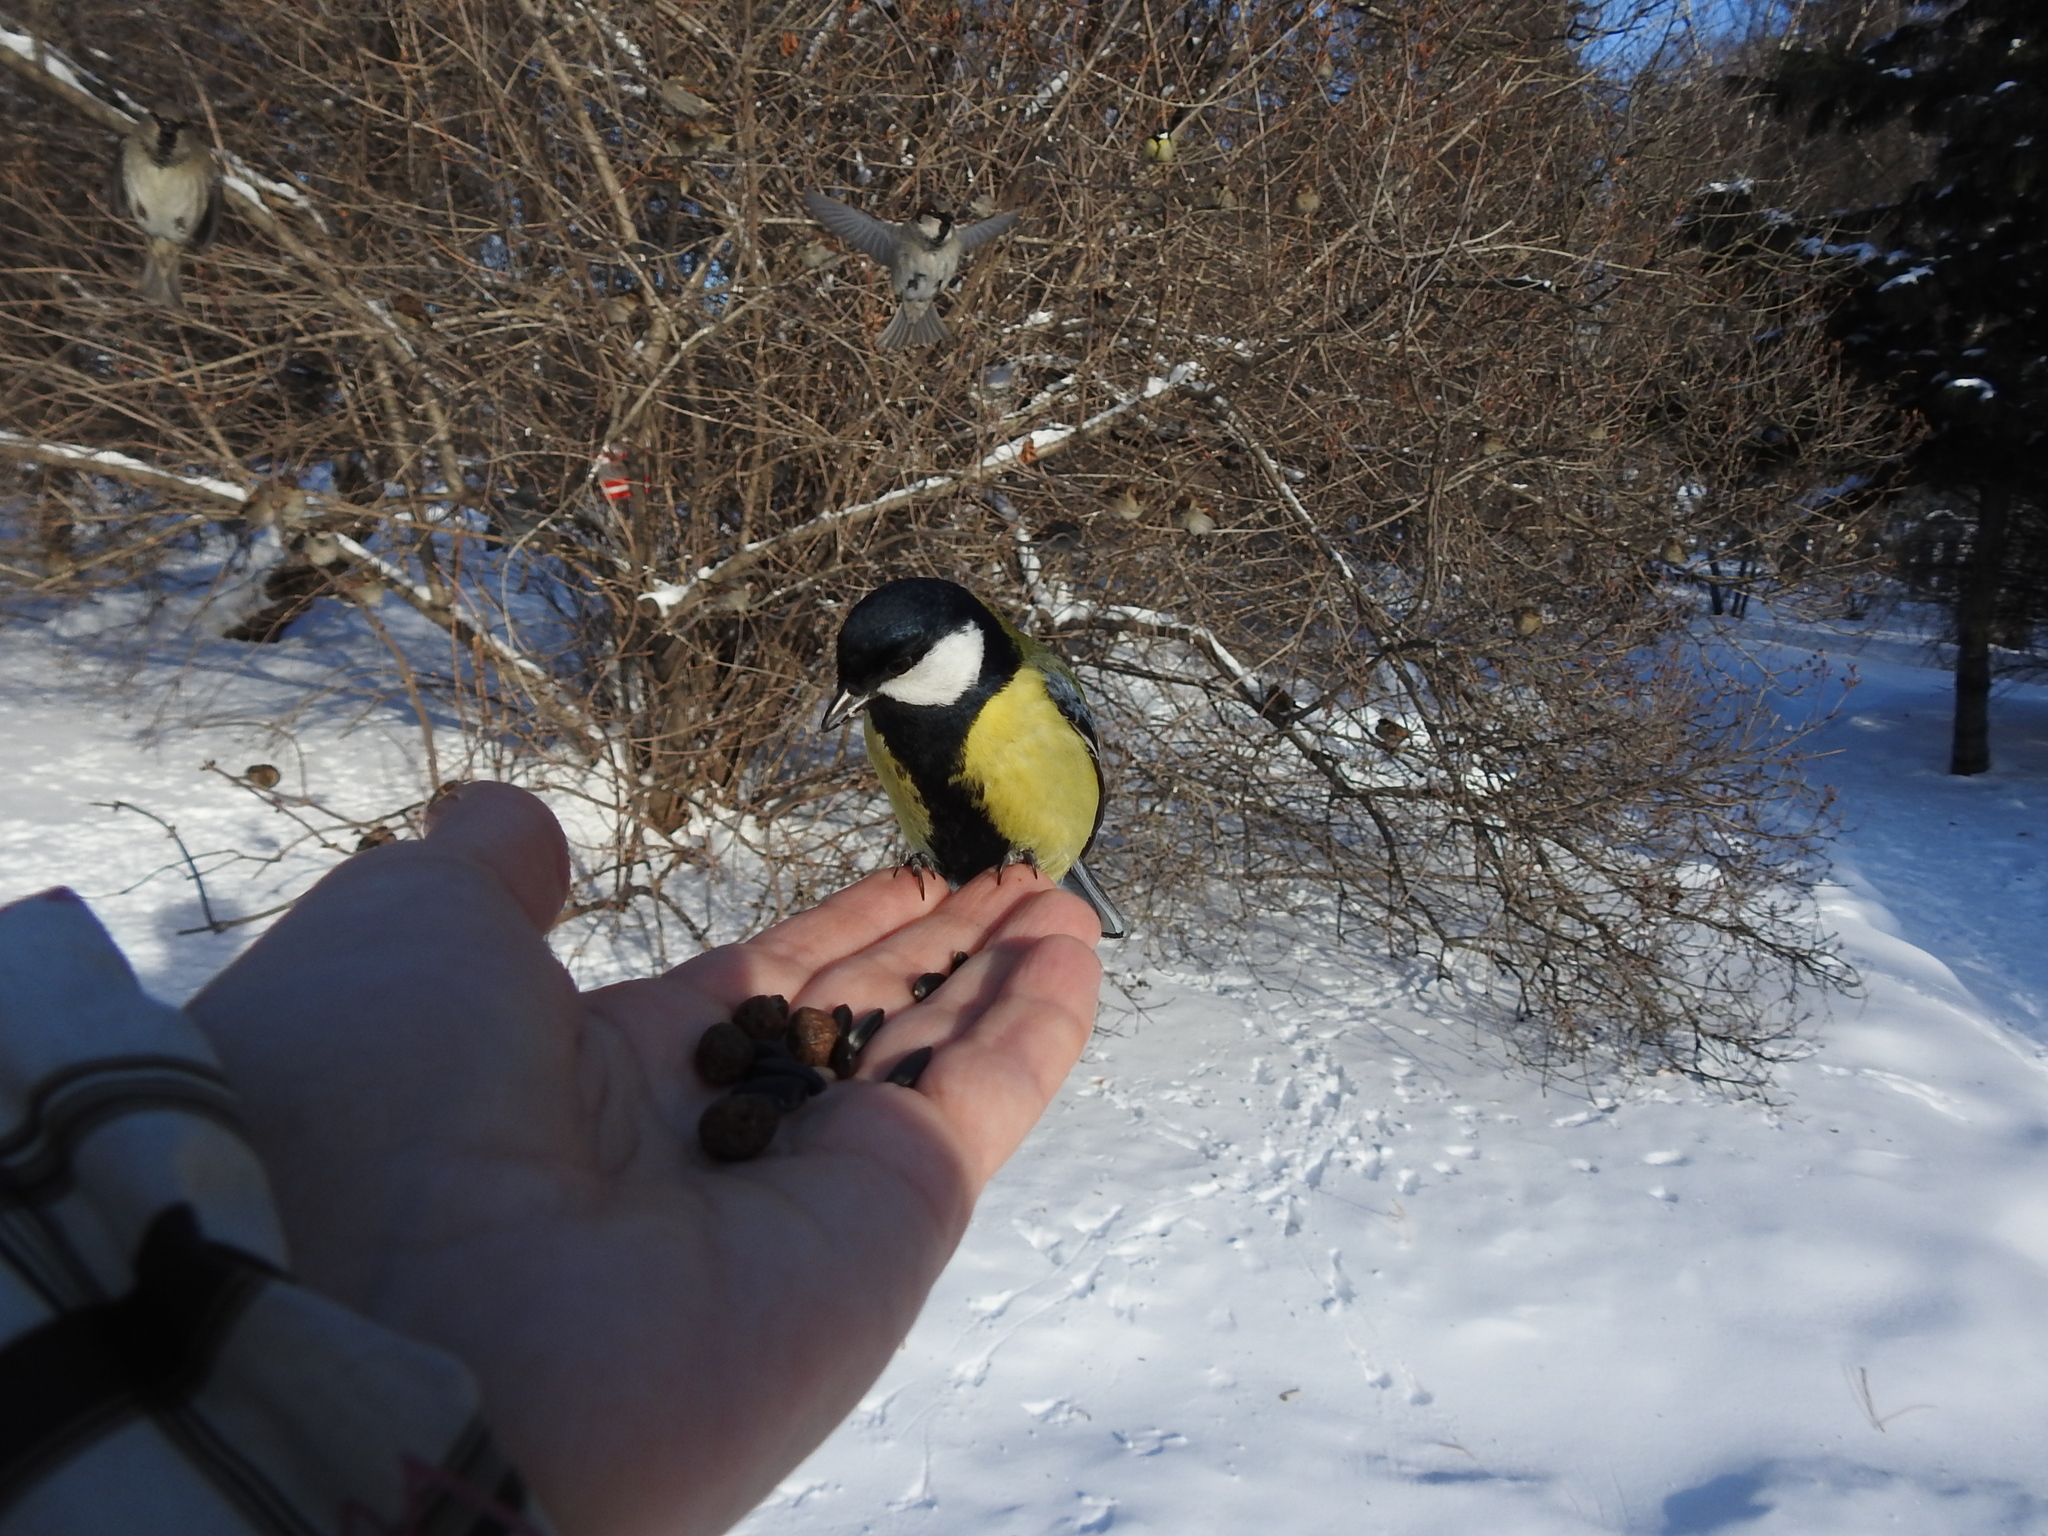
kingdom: Animalia
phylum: Chordata
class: Aves
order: Passeriformes
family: Paridae
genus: Parus
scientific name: Parus major
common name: Great tit
